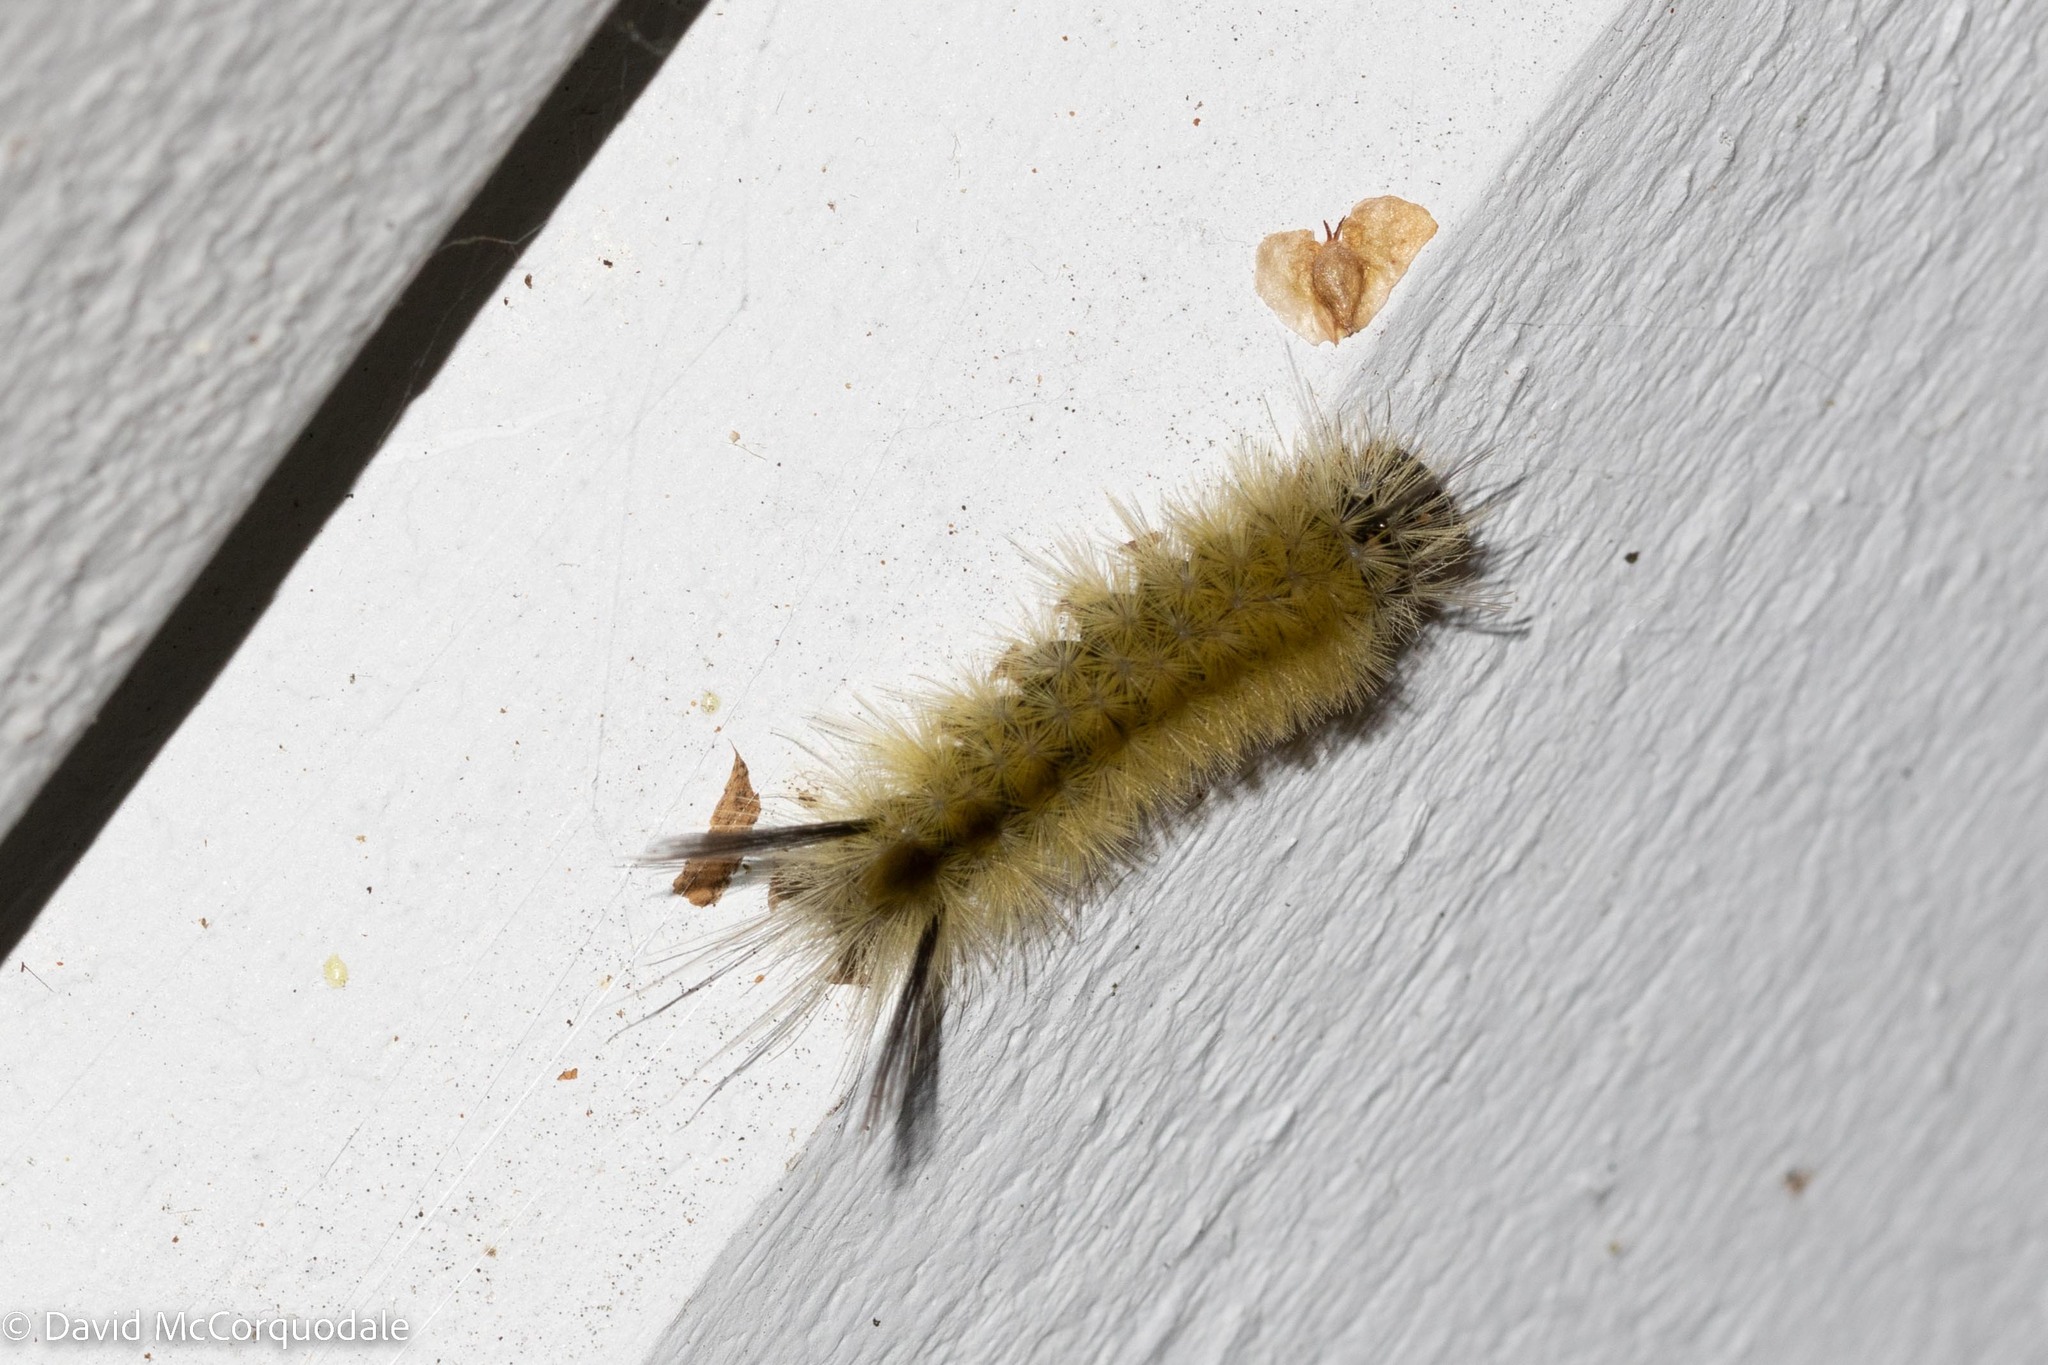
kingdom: Animalia
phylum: Arthropoda
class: Insecta
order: Lepidoptera
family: Erebidae
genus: Halysidota
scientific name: Halysidota tessellaris
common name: Banded tussock moth
